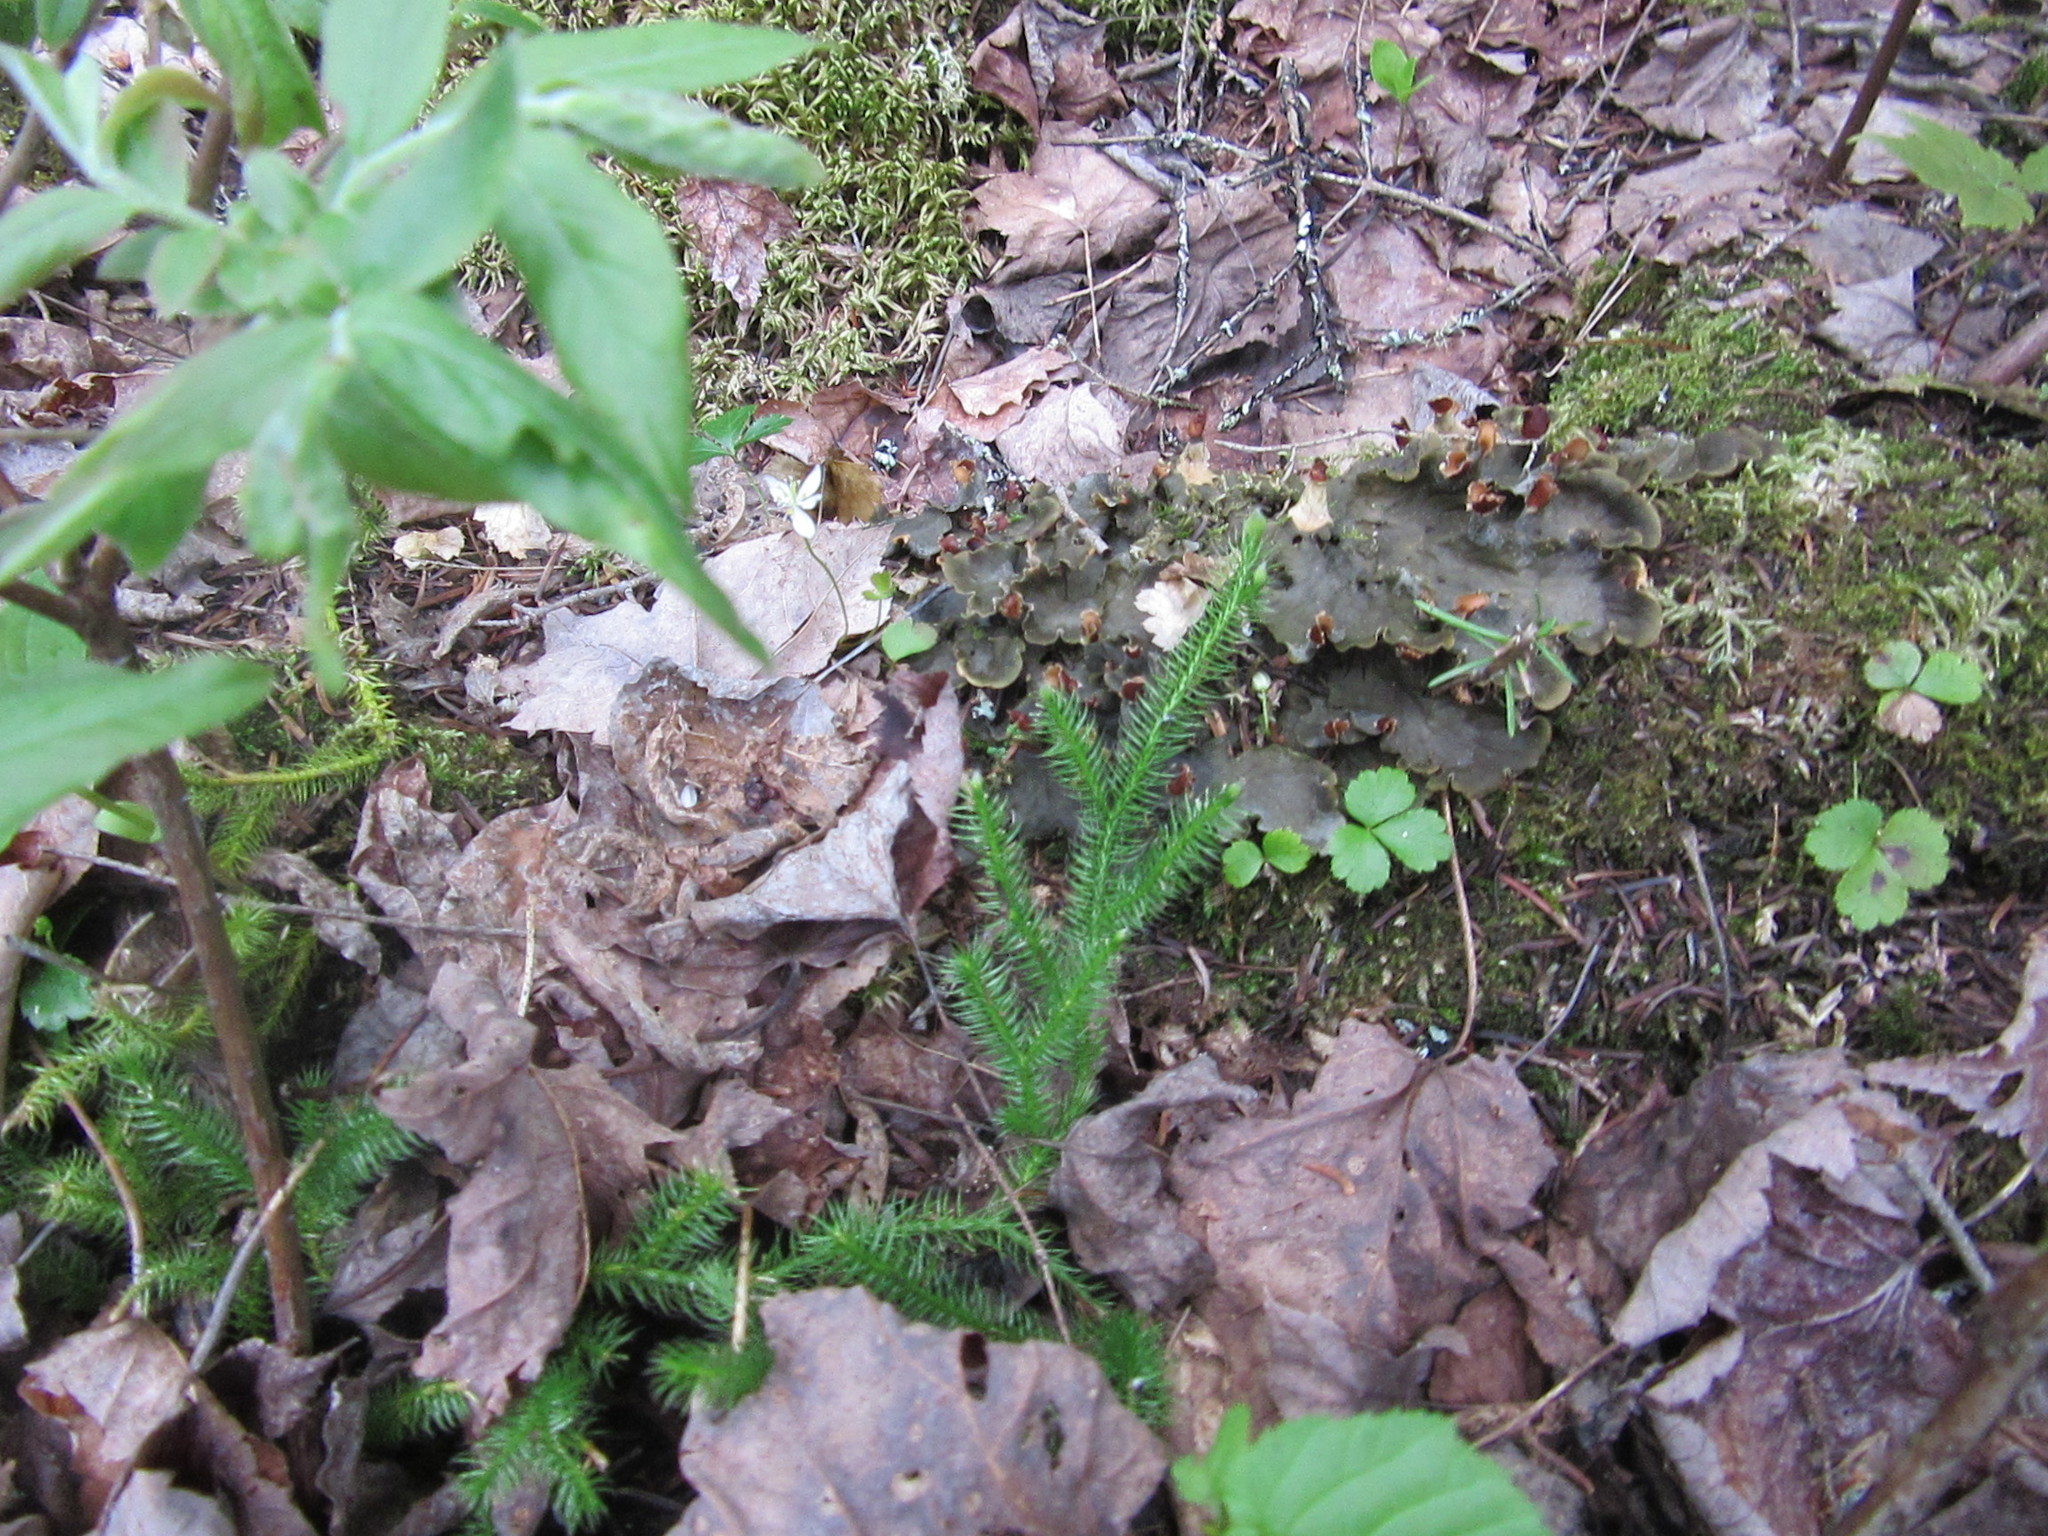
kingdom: Plantae
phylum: Tracheophyta
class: Lycopodiopsida
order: Lycopodiales
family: Lycopodiaceae
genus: Lycopodium
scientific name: Lycopodium clavatum
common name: Stag's-horn clubmoss
